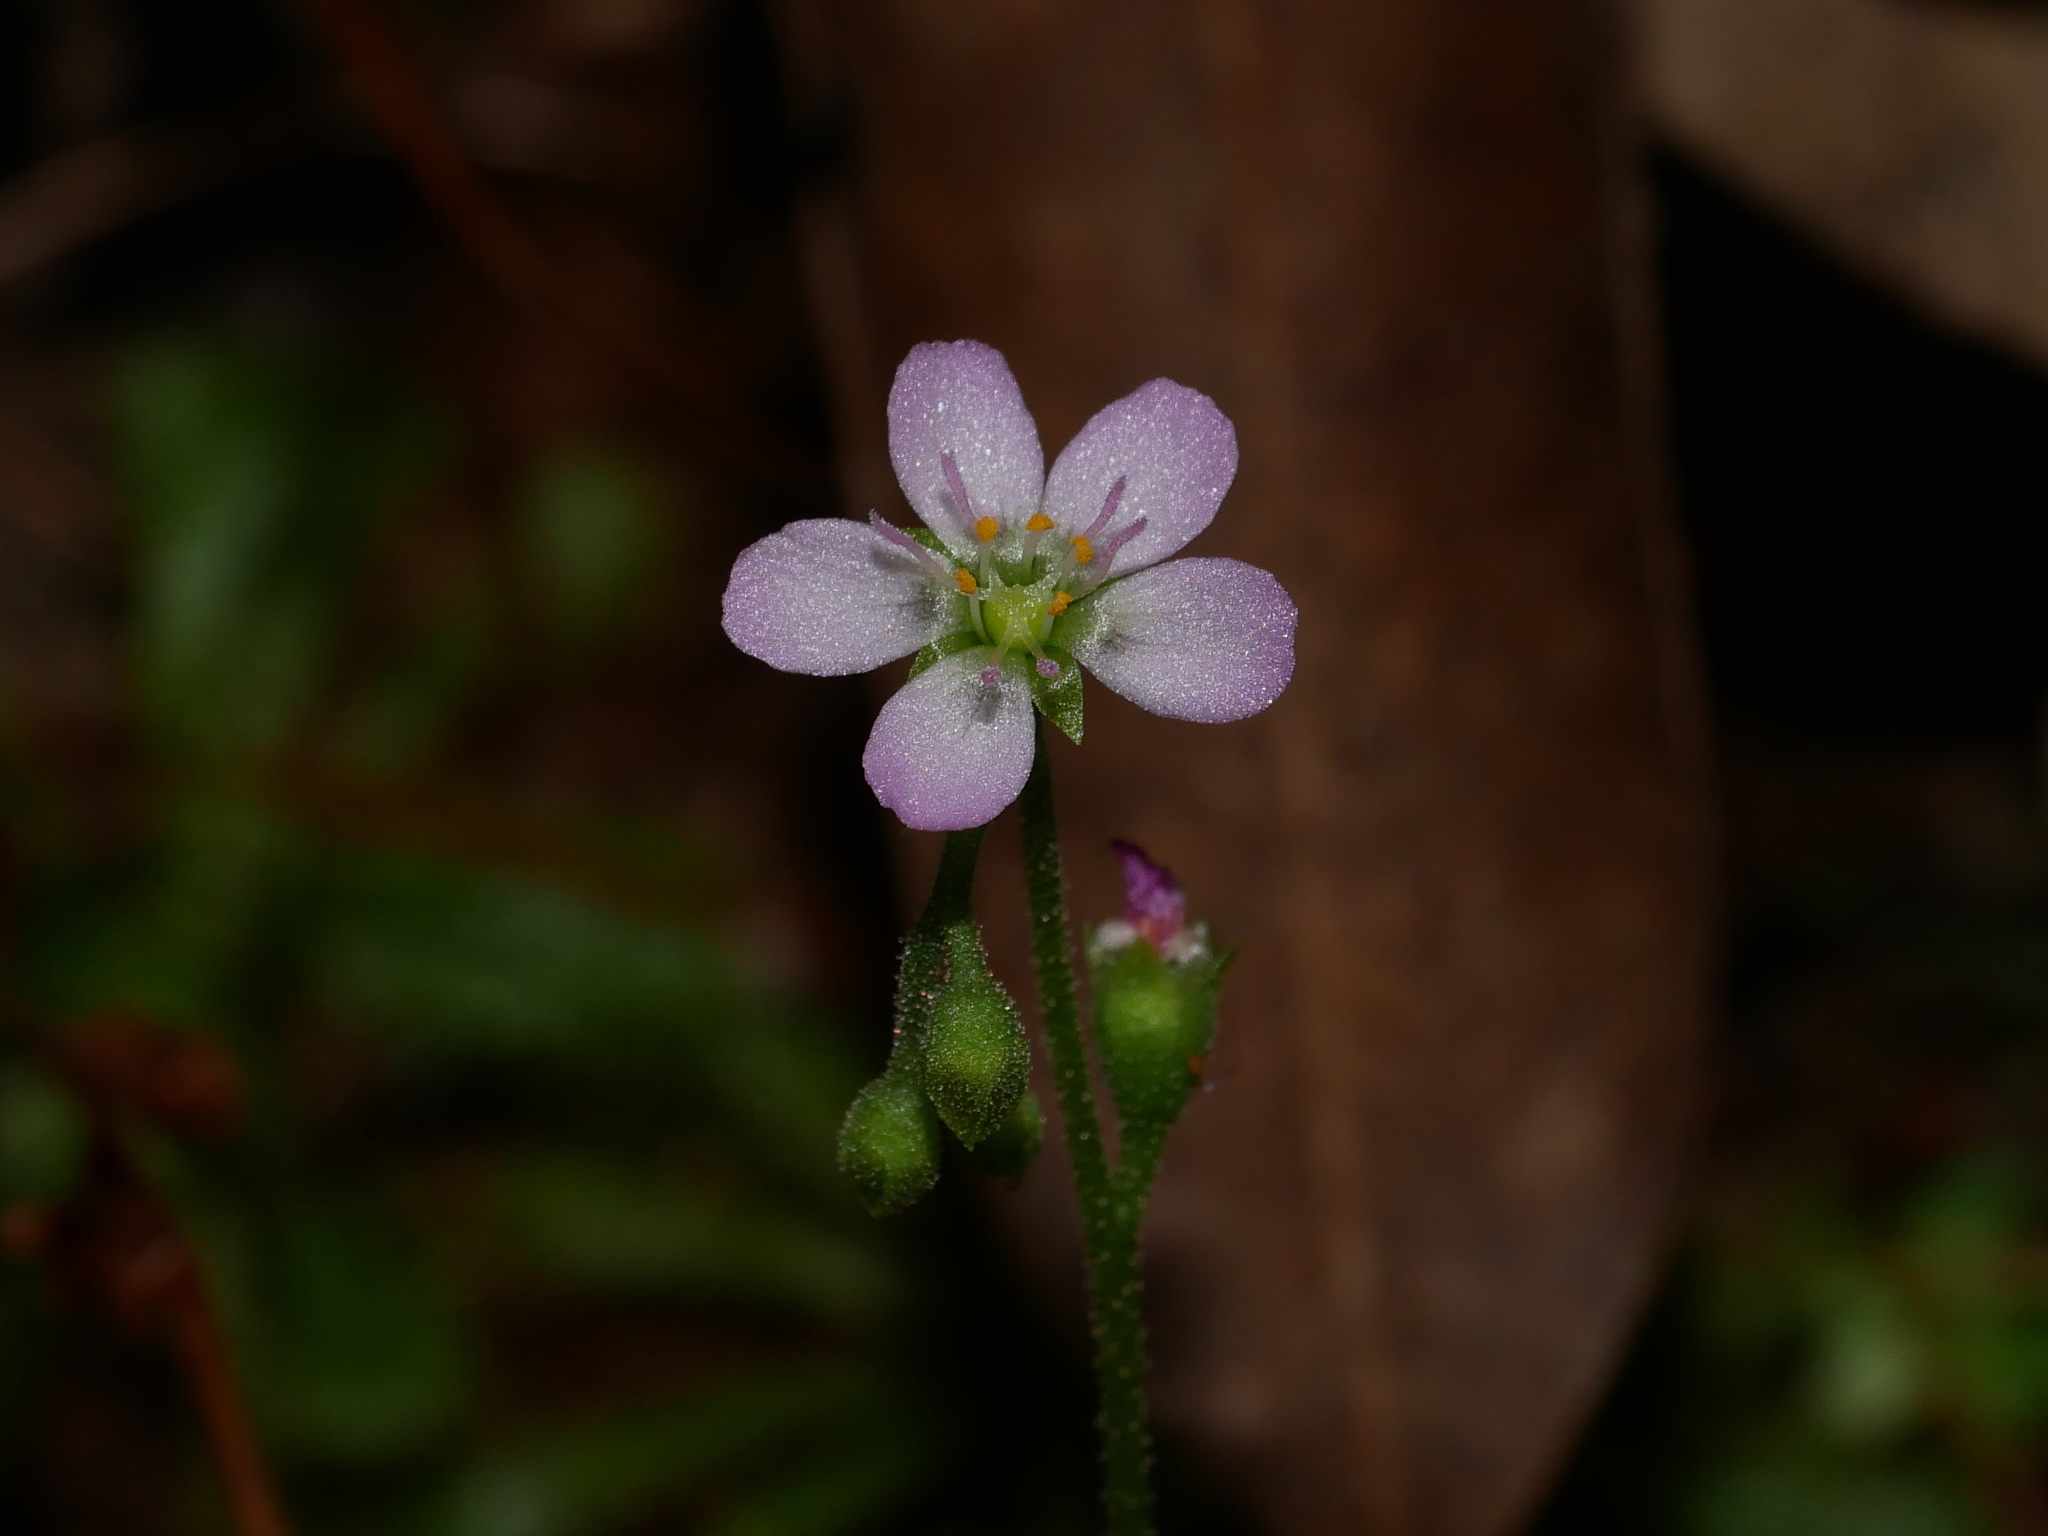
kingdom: Plantae
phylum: Tracheophyta
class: Magnoliopsida
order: Caryophyllales
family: Droseraceae
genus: Drosera
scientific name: Drosera spatulata
